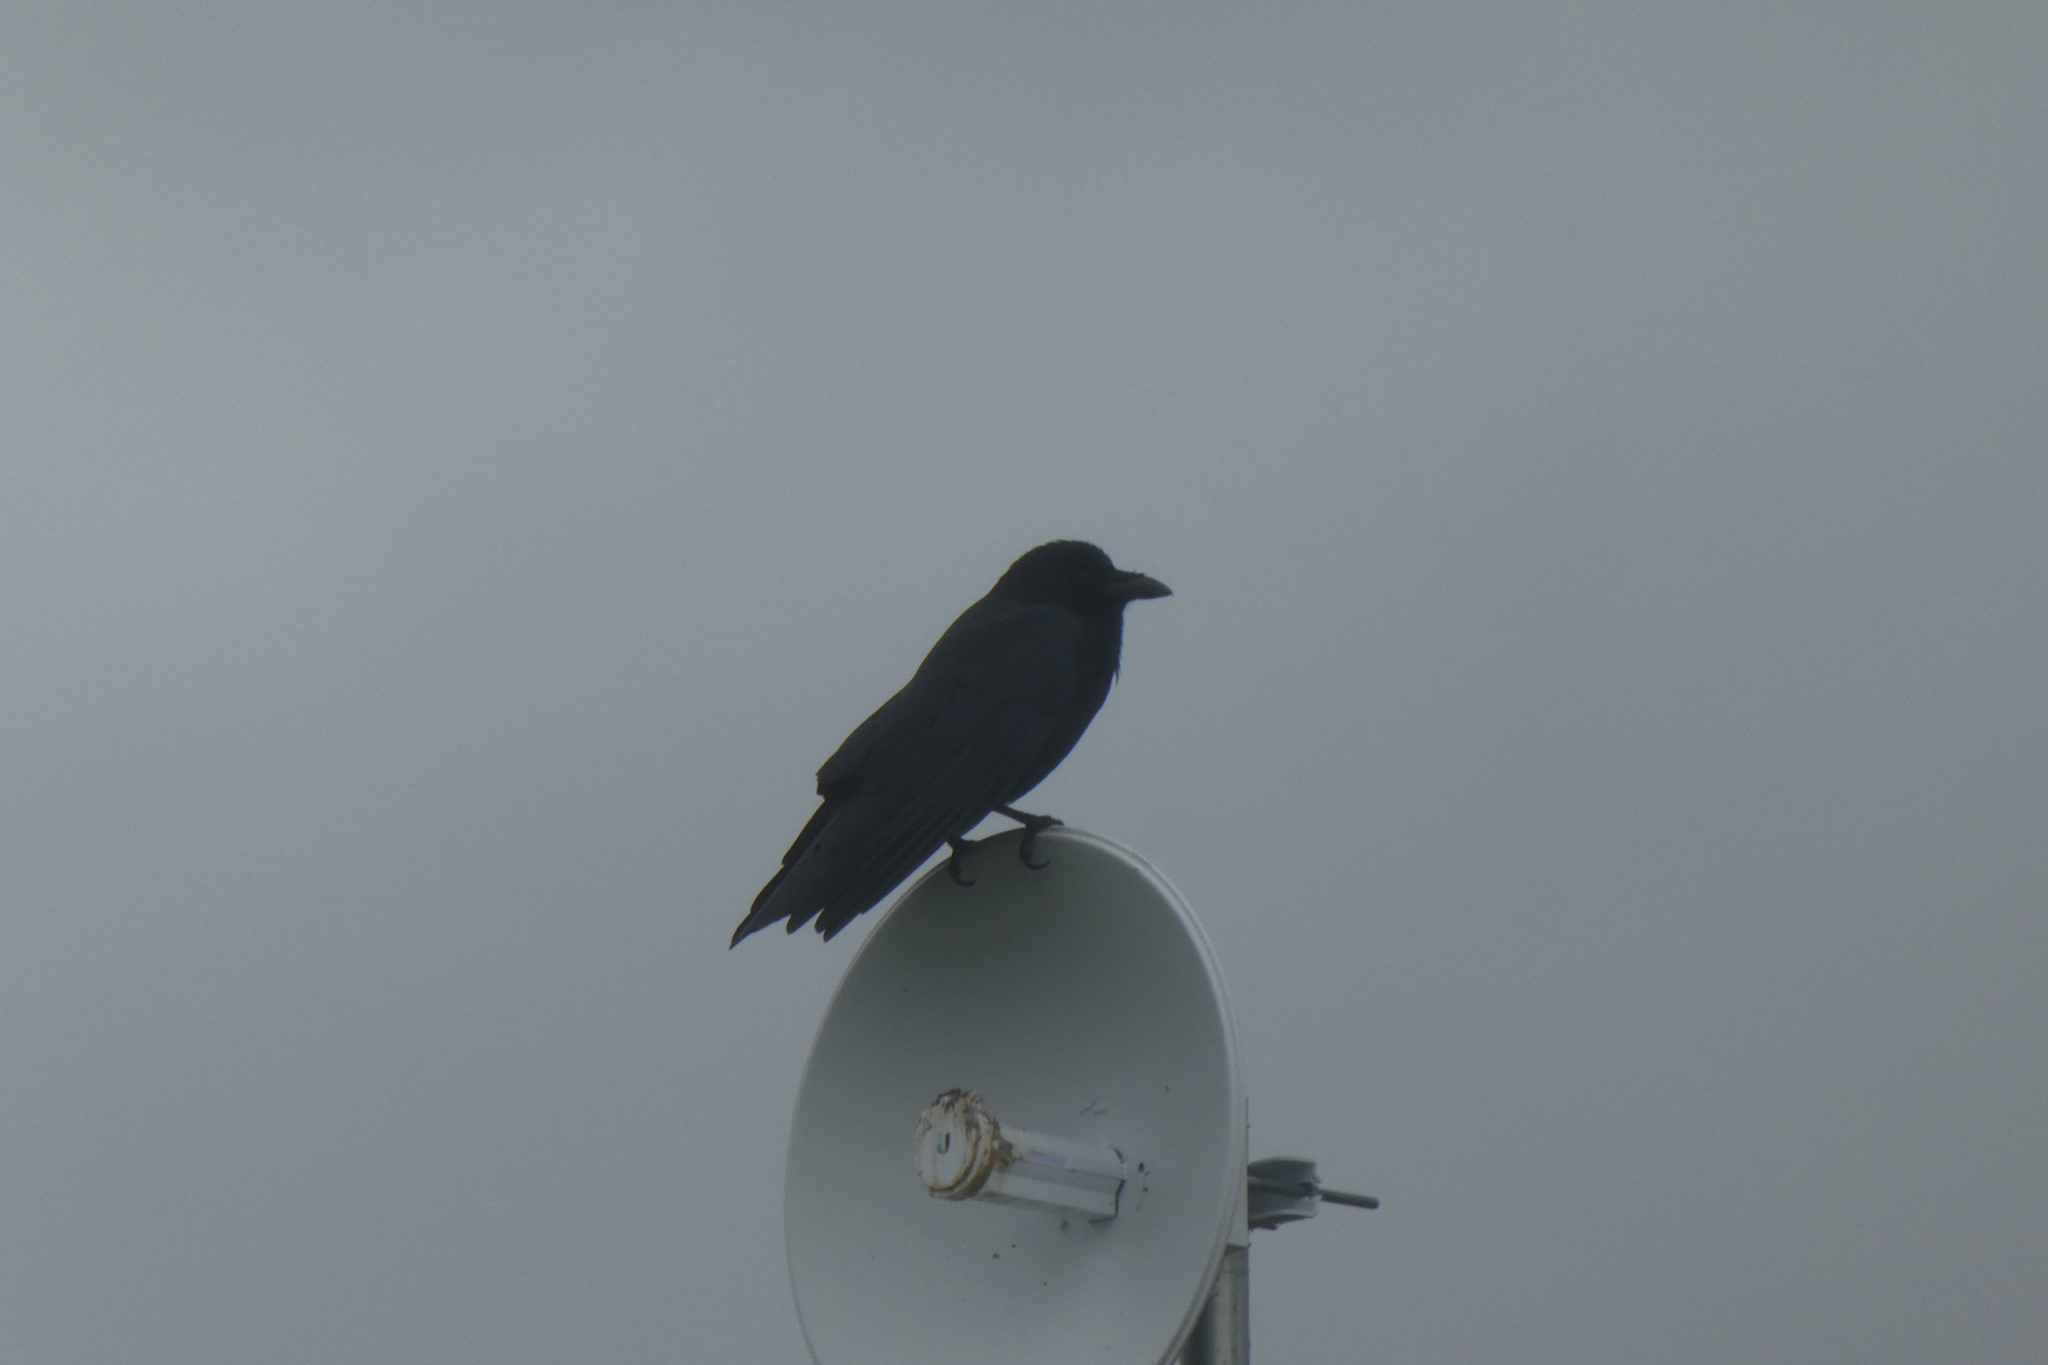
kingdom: Animalia
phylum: Chordata
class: Aves
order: Passeriformes
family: Corvidae
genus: Corvus
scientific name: Corvus corax
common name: Common raven
